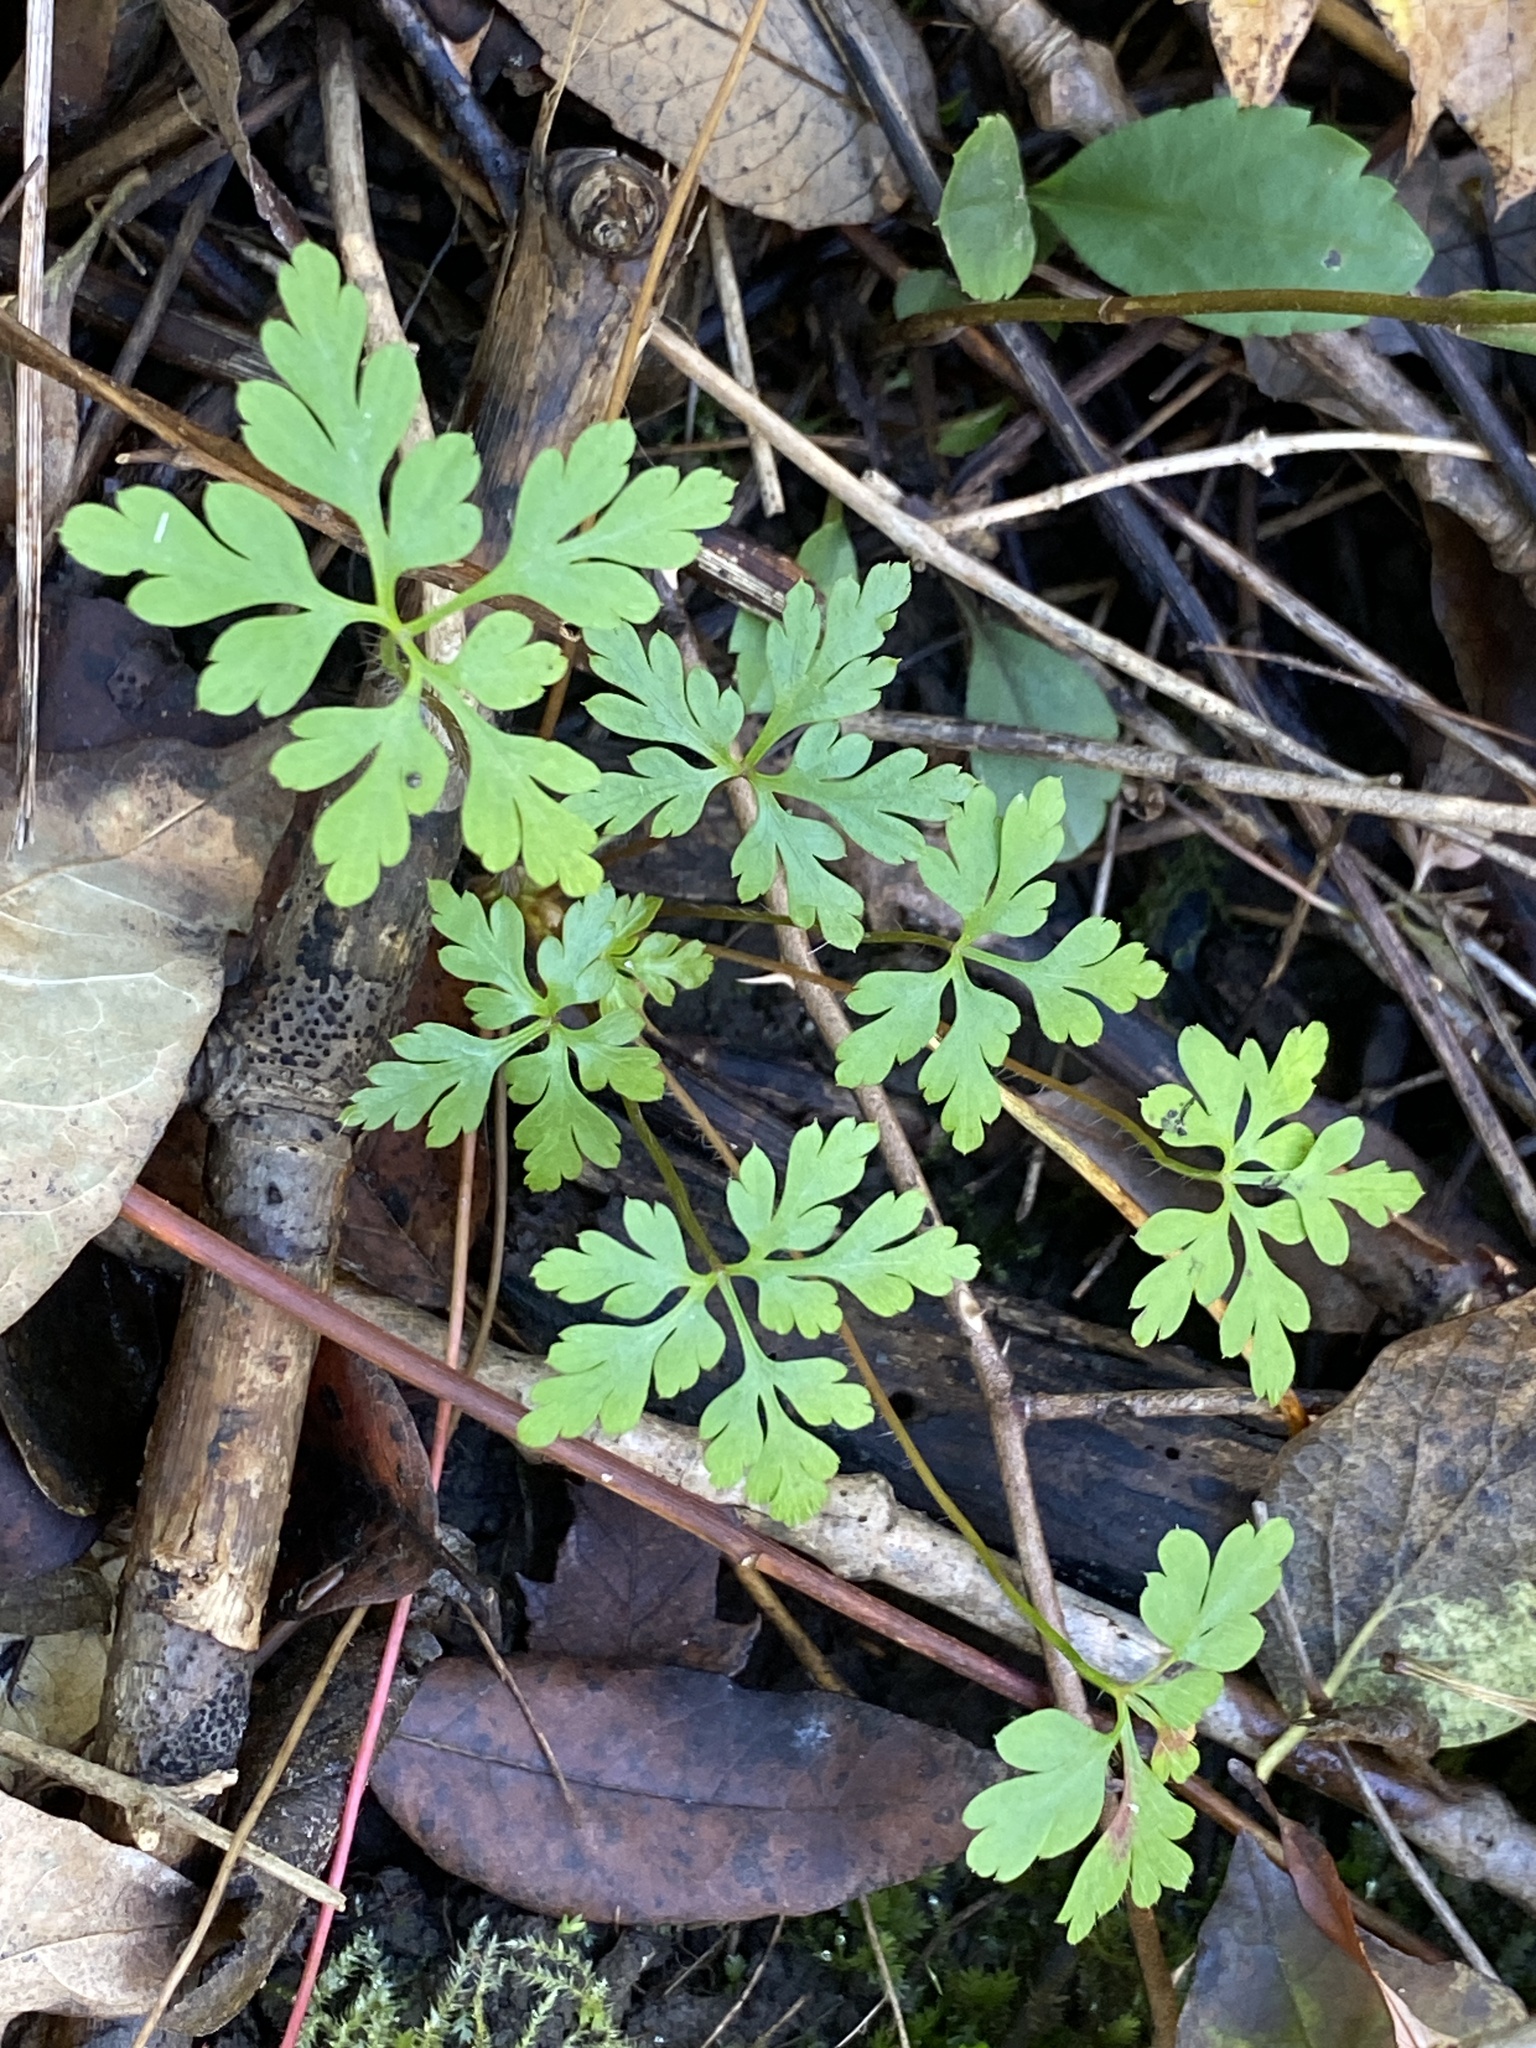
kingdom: Plantae
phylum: Tracheophyta
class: Magnoliopsida
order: Geraniales
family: Geraniaceae
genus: Geranium
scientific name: Geranium robertianum
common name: Herb-robert
